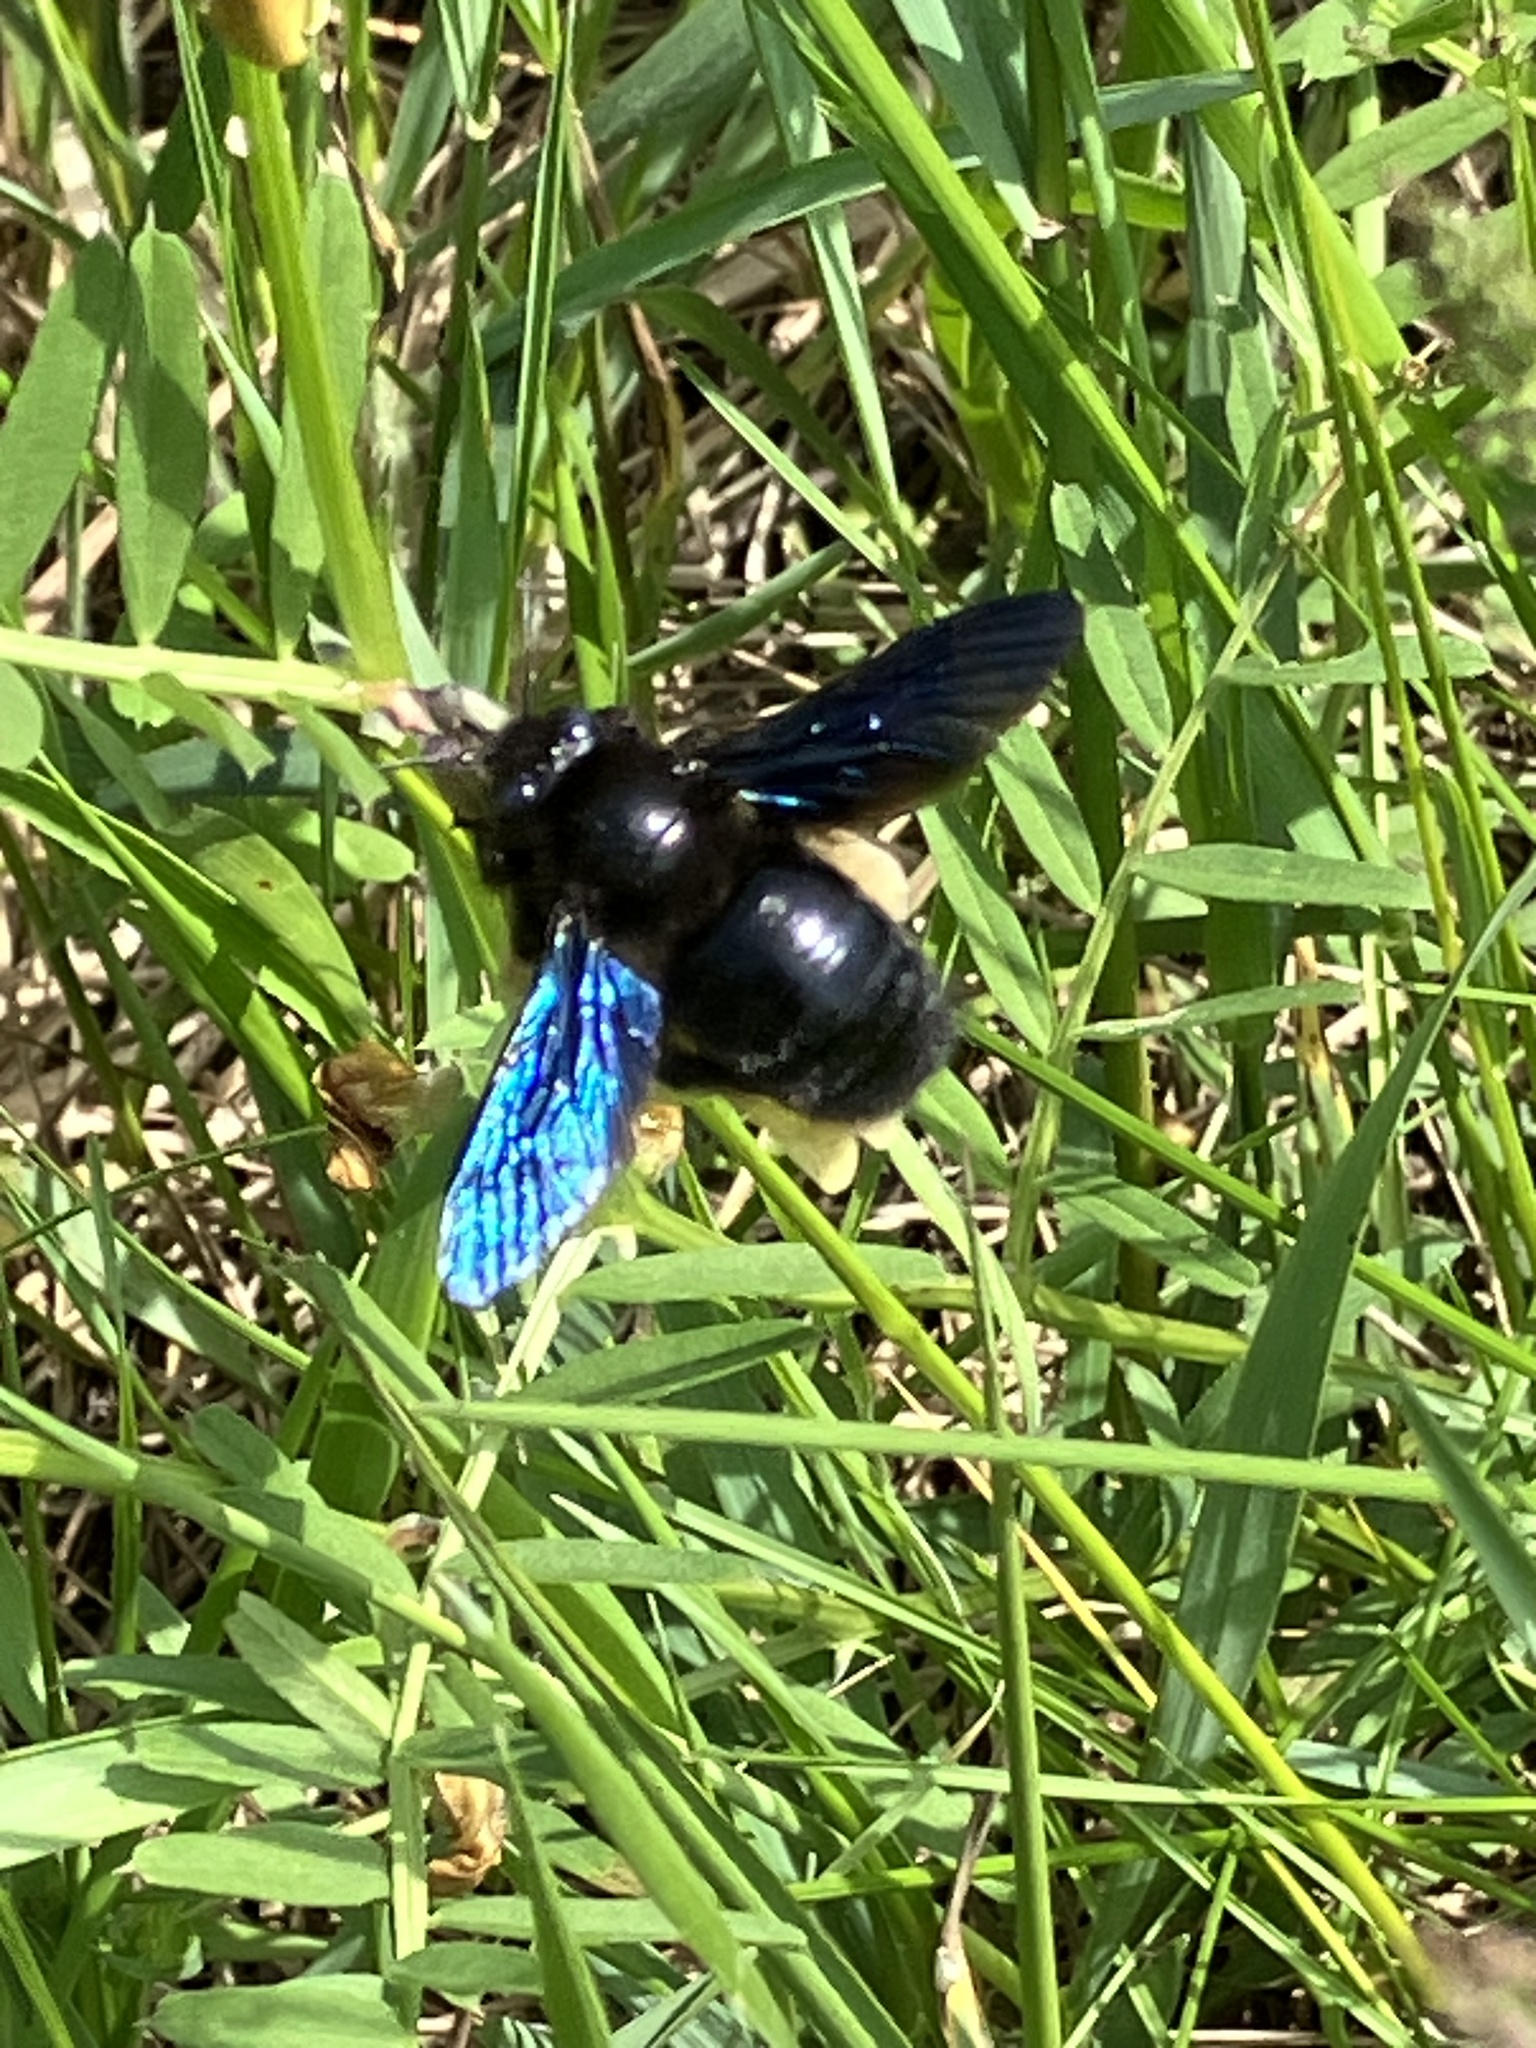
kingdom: Animalia
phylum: Arthropoda
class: Insecta
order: Hymenoptera
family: Apidae
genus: Xylocopa
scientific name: Xylocopa violacea
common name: Violet carpenter bee
